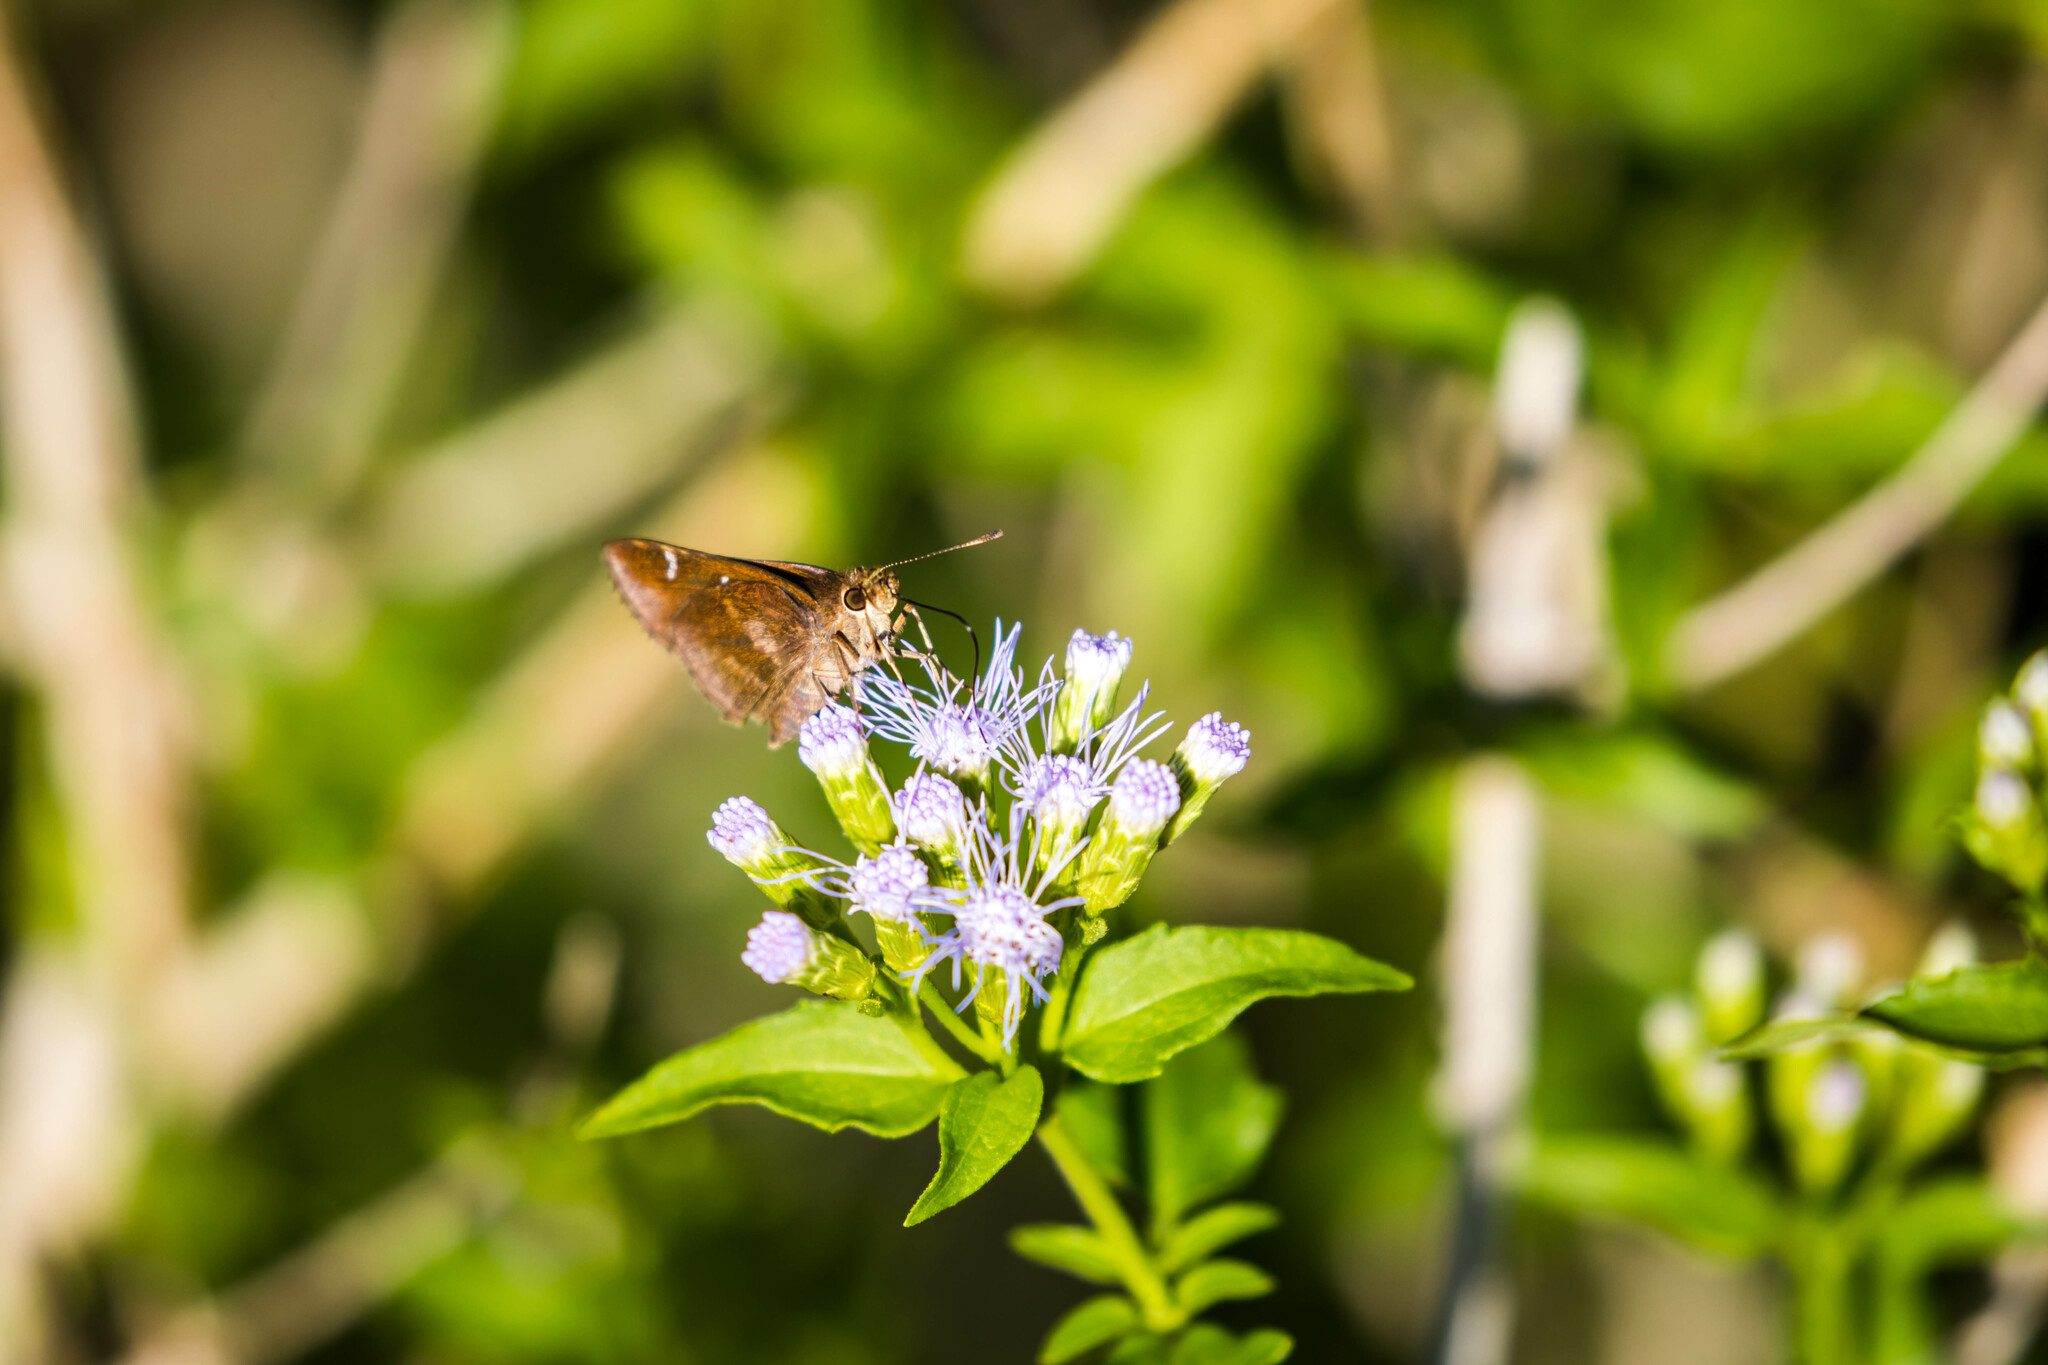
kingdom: Animalia
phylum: Arthropoda
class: Insecta
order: Lepidoptera
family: Hesperiidae
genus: Lerema
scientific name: Lerema accius
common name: Clouded skipper
